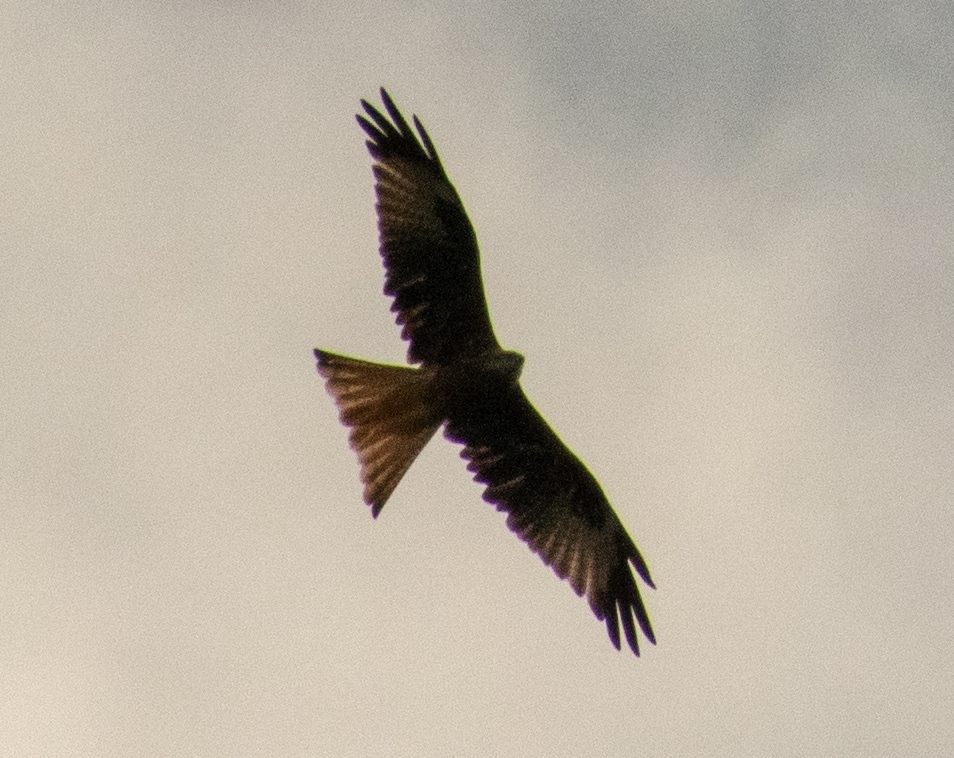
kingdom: Animalia
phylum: Chordata
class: Aves
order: Accipitriformes
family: Accipitridae
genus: Milvus
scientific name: Milvus milvus
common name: Red kite
